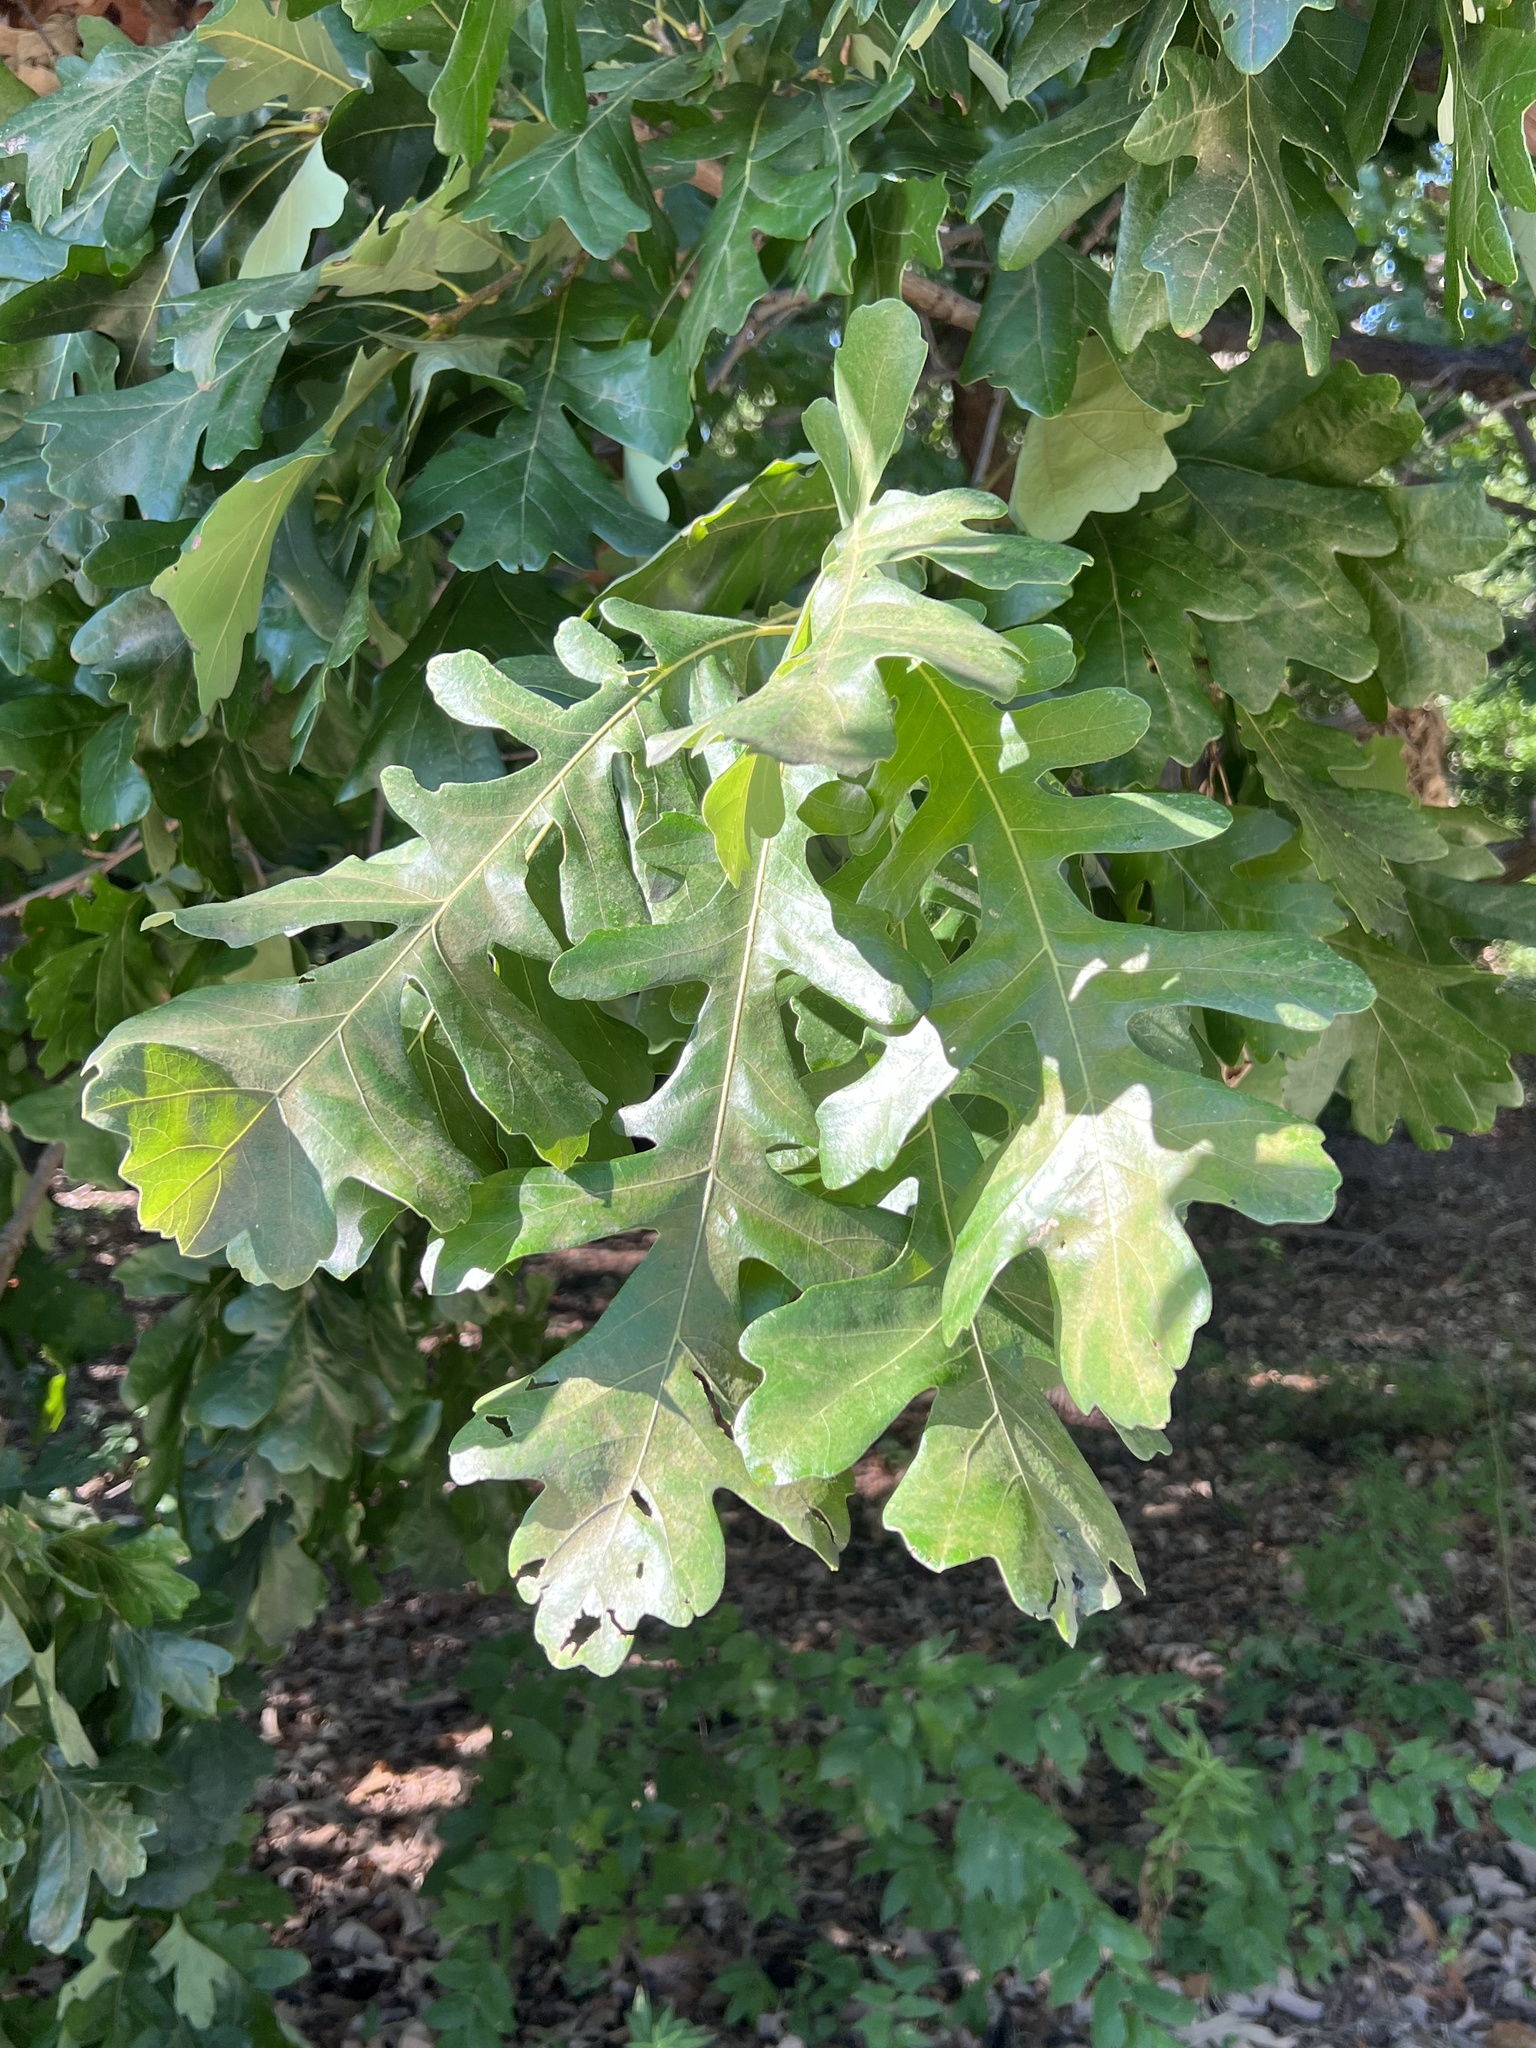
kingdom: Plantae
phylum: Tracheophyta
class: Magnoliopsida
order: Fagales
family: Fagaceae
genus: Quercus
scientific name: Quercus macrocarpa
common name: Bur oak
